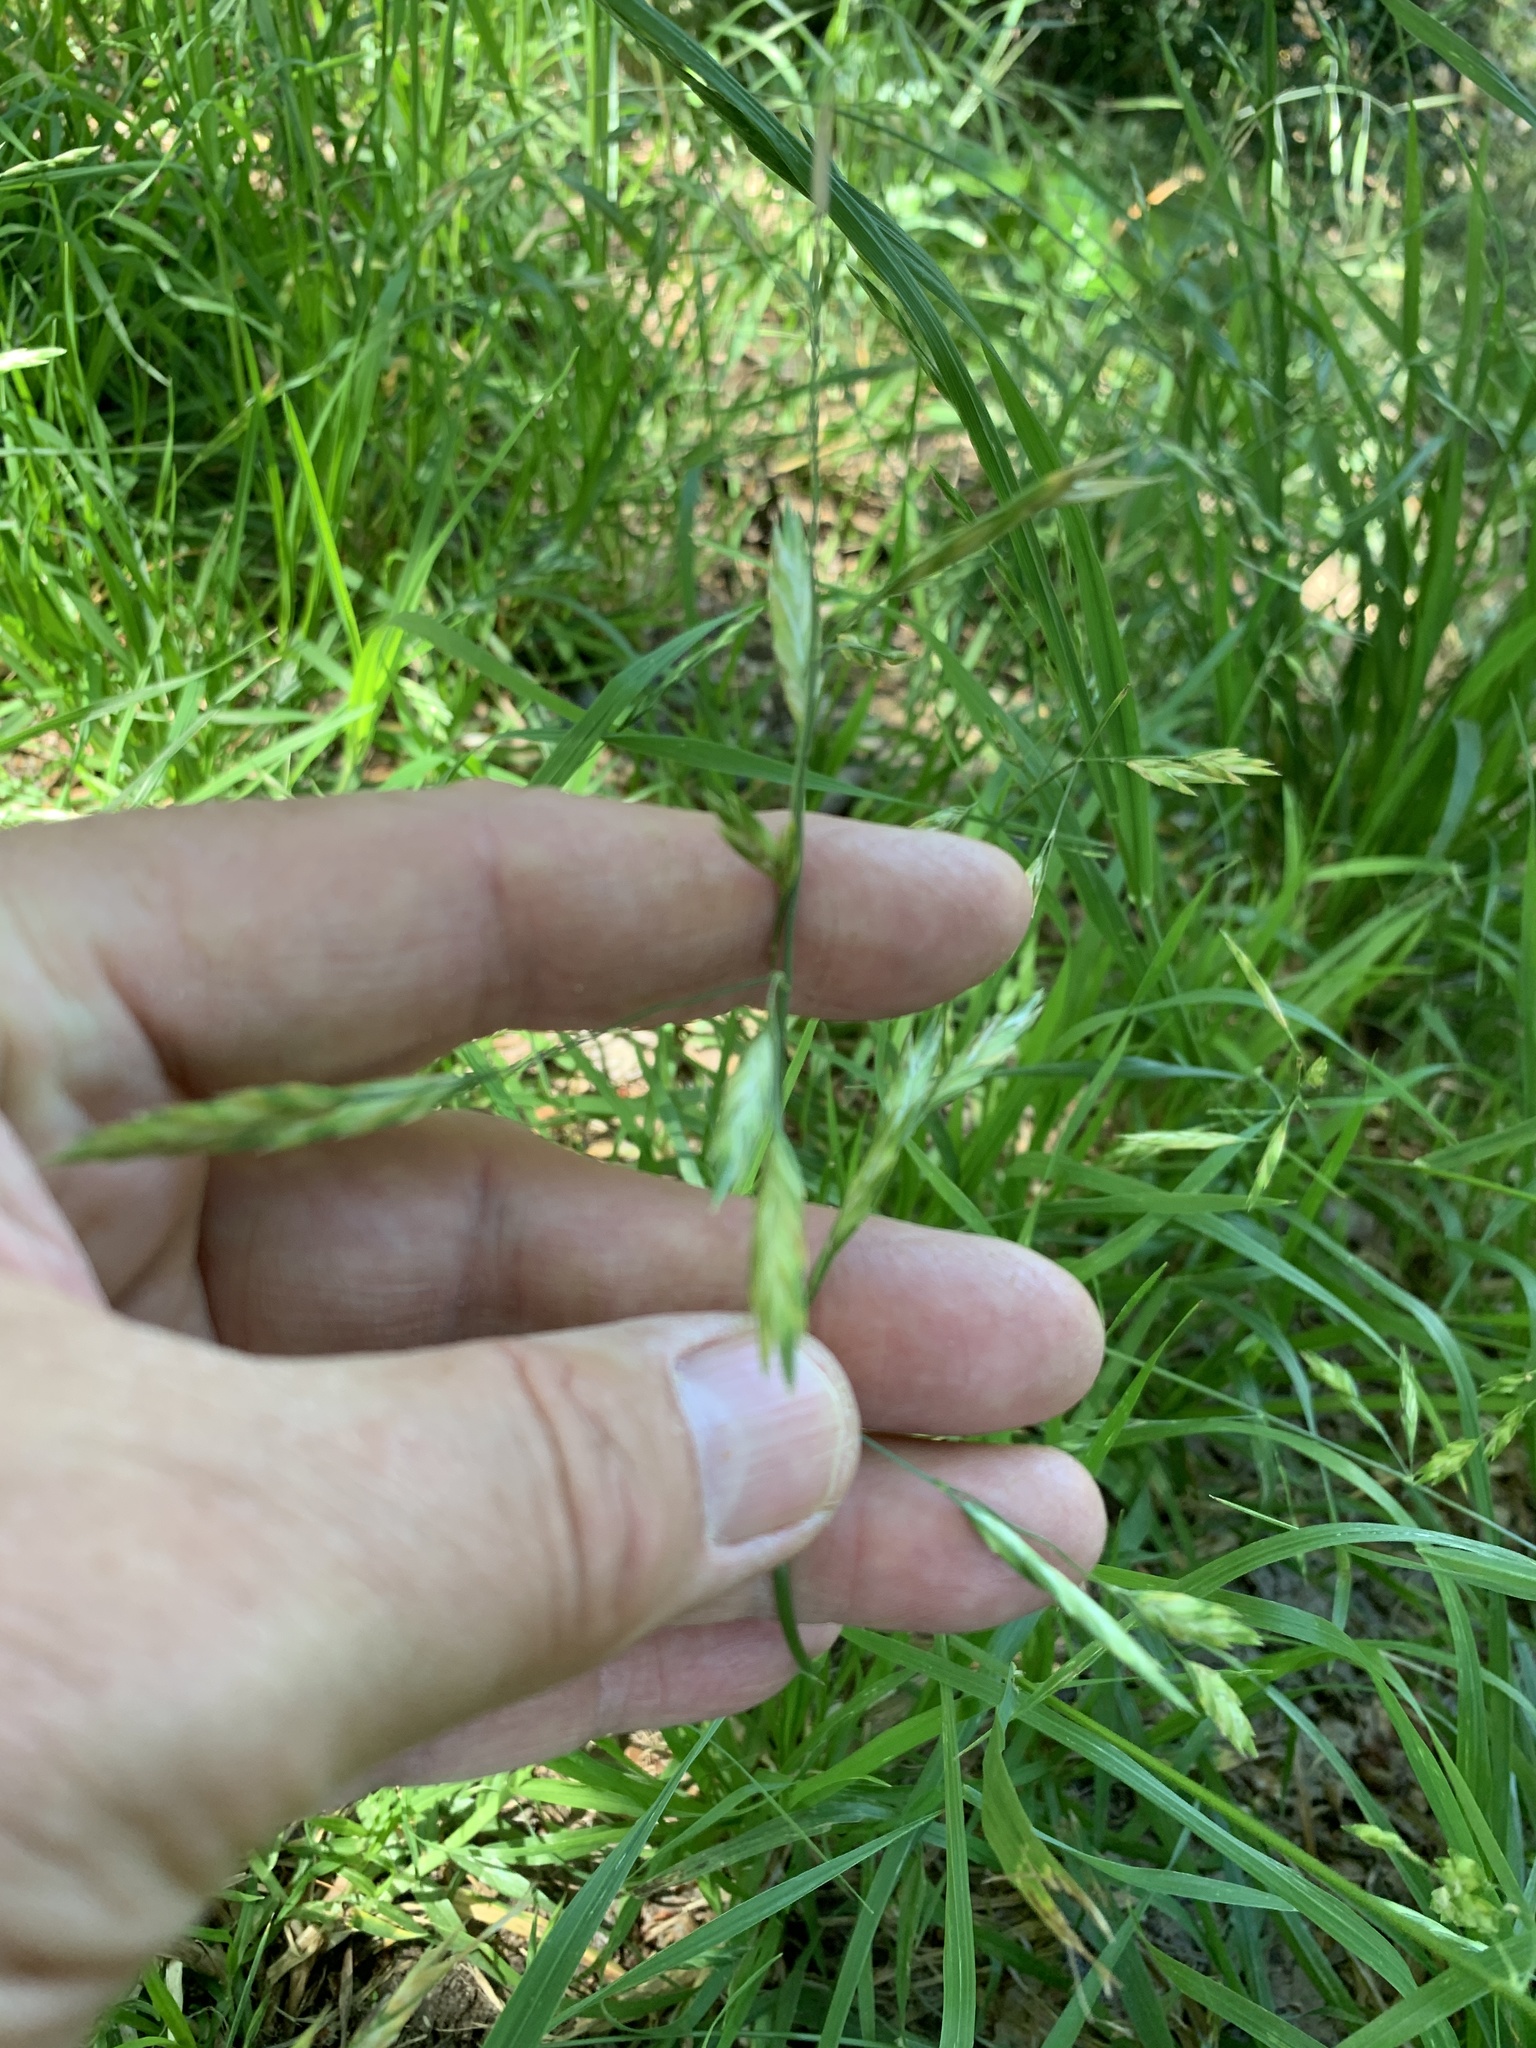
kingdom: Plantae
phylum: Tracheophyta
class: Liliopsida
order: Poales
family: Poaceae
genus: Bromus
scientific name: Bromus catharticus
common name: Rescuegrass
